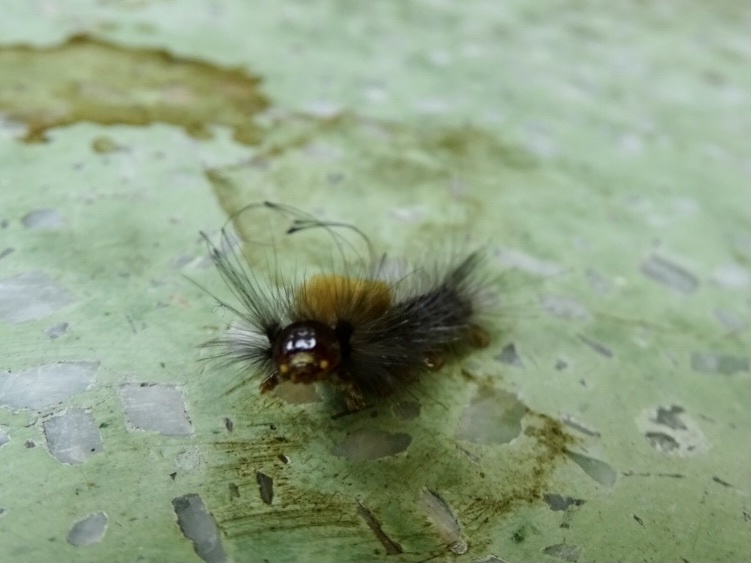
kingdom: Animalia
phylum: Arthropoda
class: Insecta
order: Lepidoptera
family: Erebidae
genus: Dasychira
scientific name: Dasychira chekiangensis
